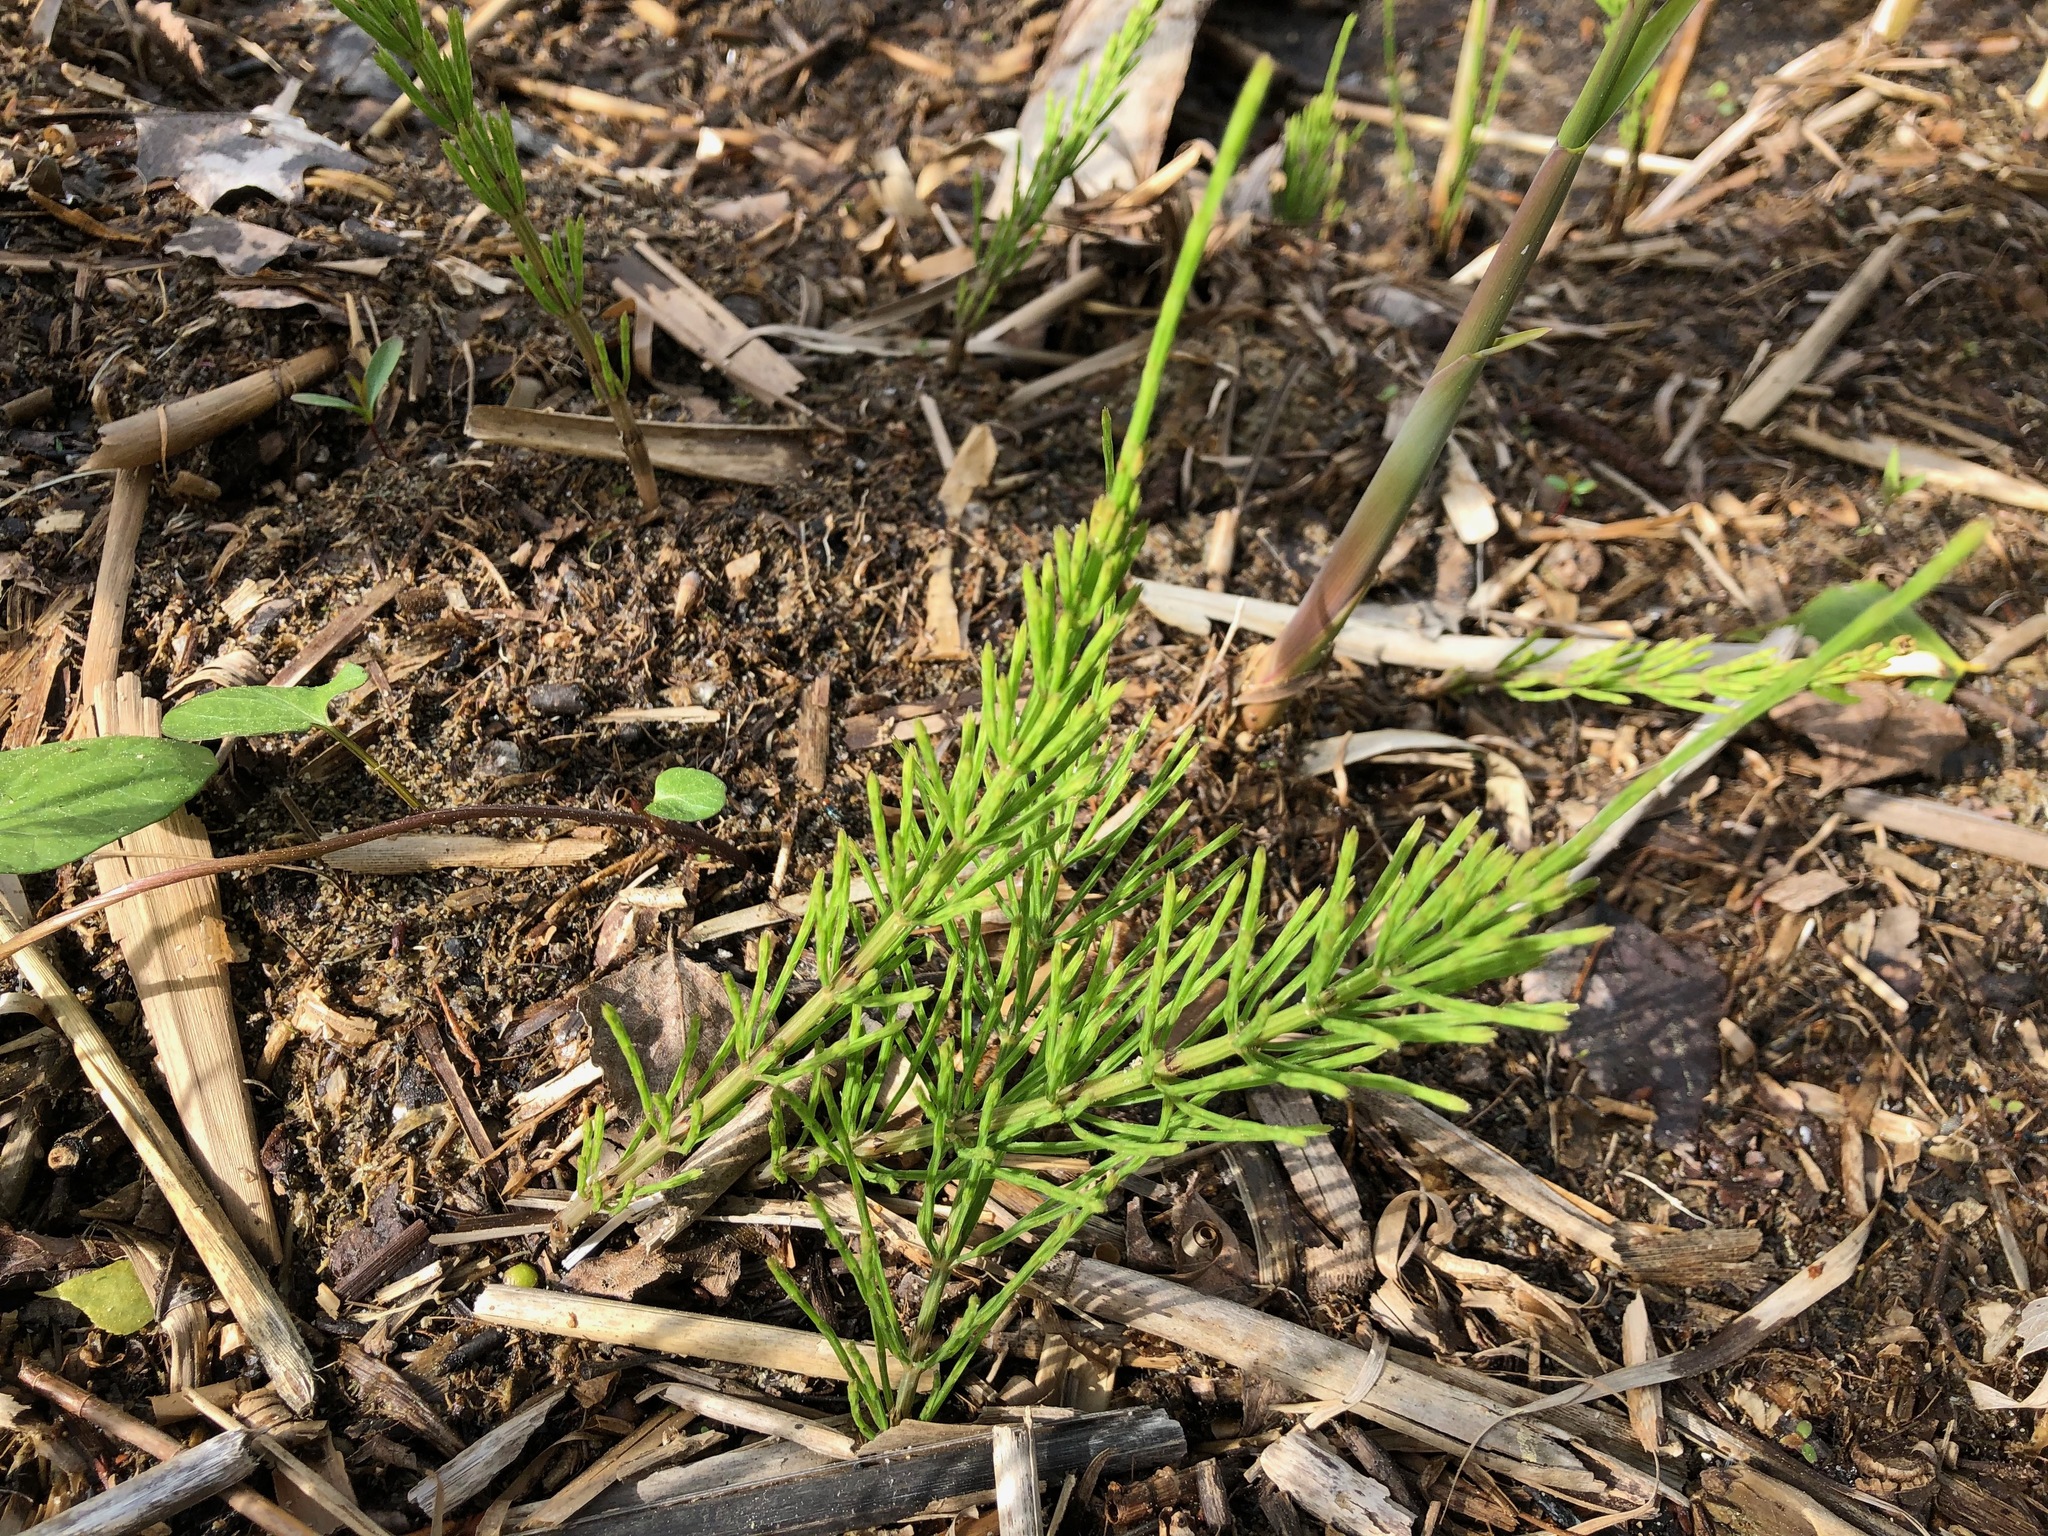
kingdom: Plantae
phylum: Tracheophyta
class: Polypodiopsida
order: Equisetales
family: Equisetaceae
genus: Equisetum
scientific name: Equisetum arvense
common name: Field horsetail
